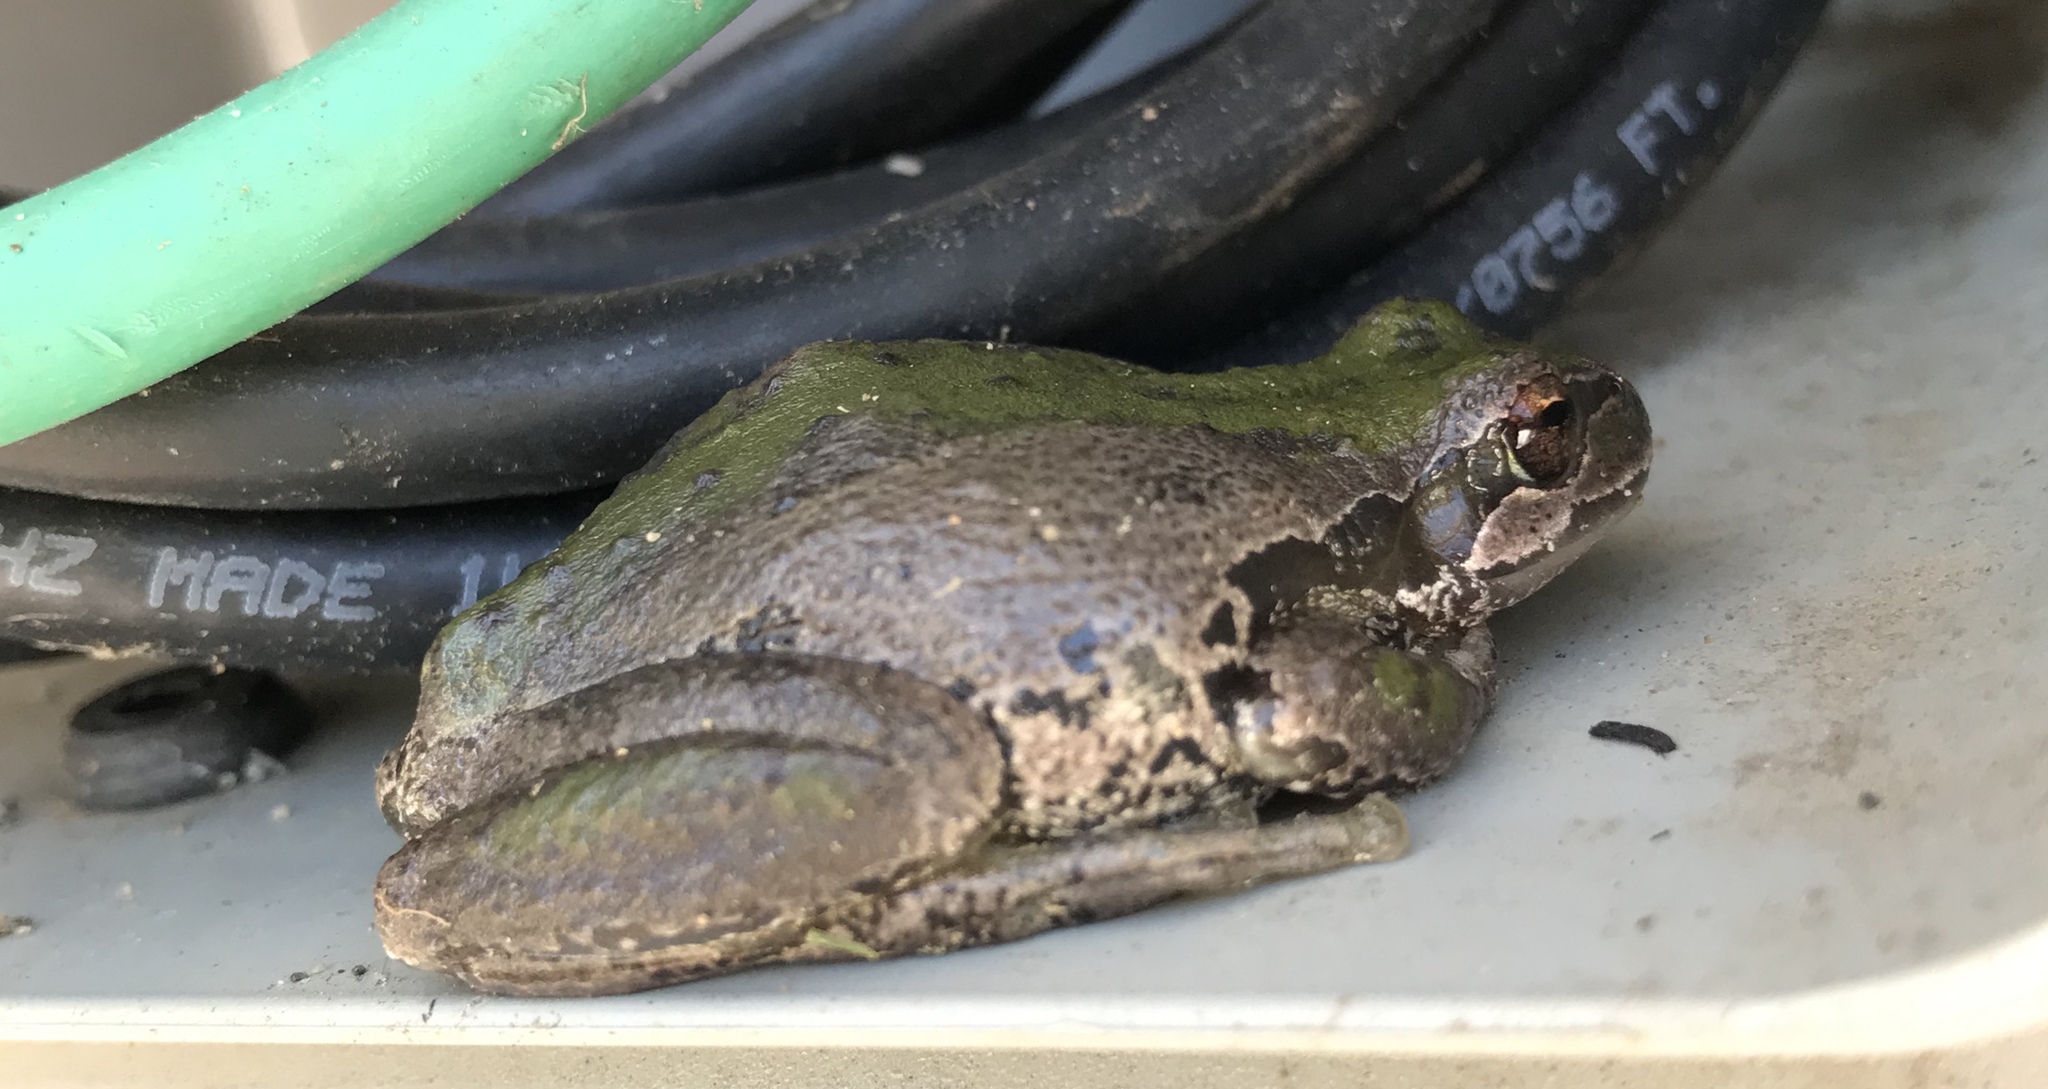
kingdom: Animalia
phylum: Chordata
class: Amphibia
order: Anura
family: Hylidae
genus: Pseudacris
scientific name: Pseudacris regilla
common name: Pacific chorus frog
